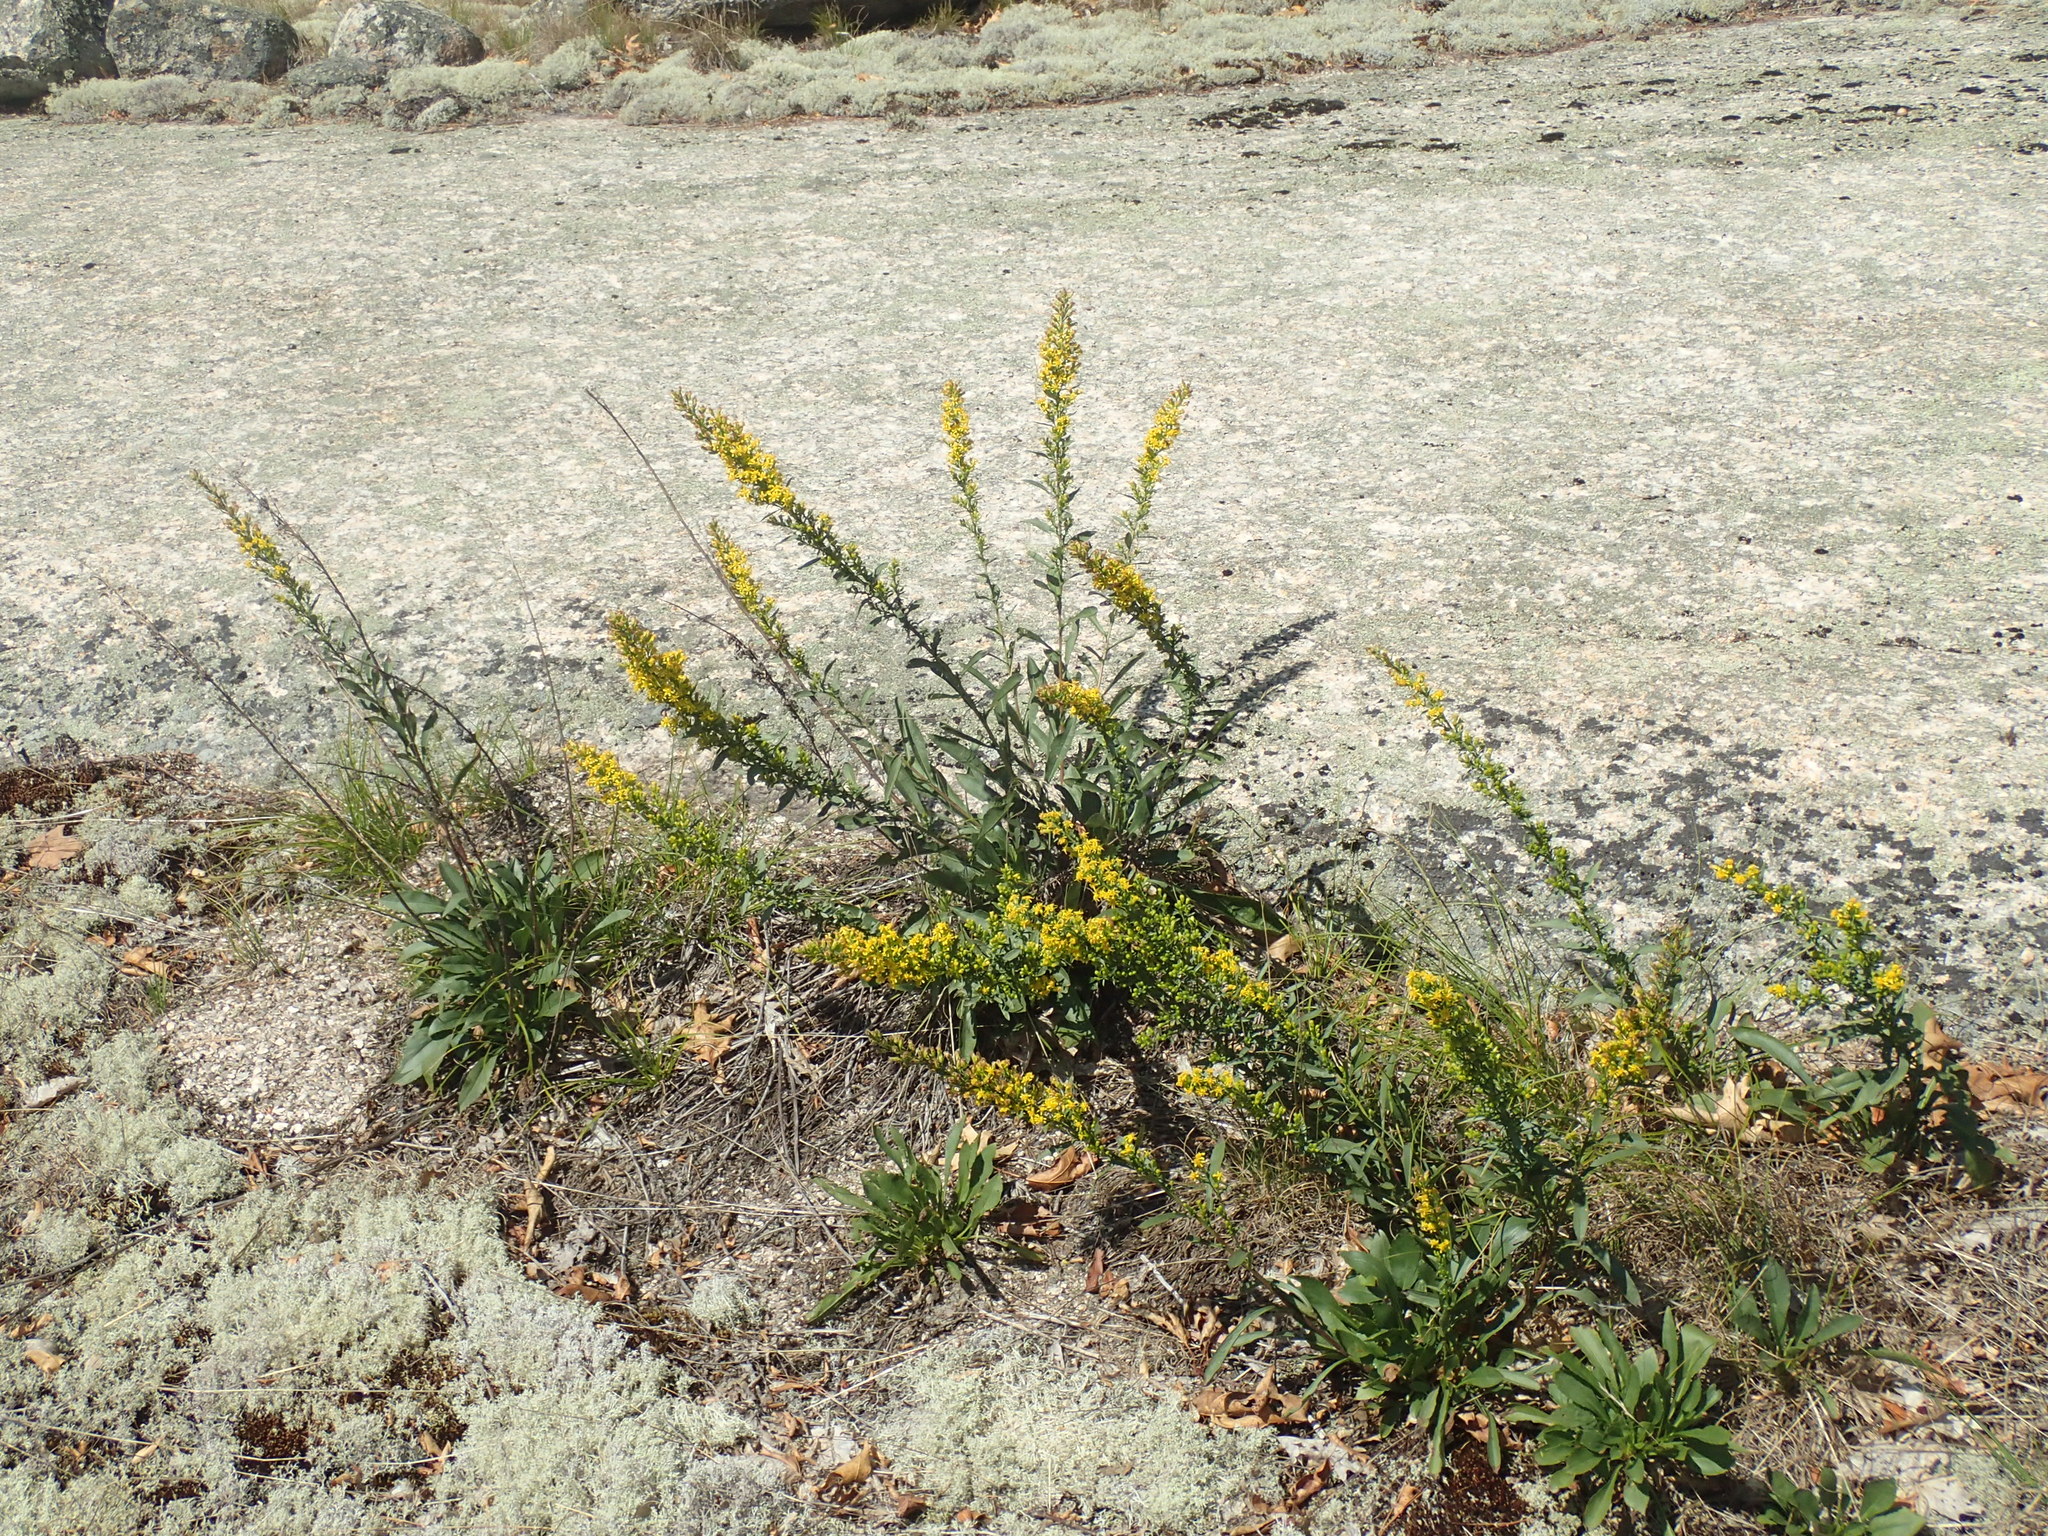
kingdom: Plantae
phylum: Tracheophyta
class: Magnoliopsida
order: Asterales
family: Asteraceae
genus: Solidago
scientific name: Solidago simplex
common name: Sticky goldenrod
